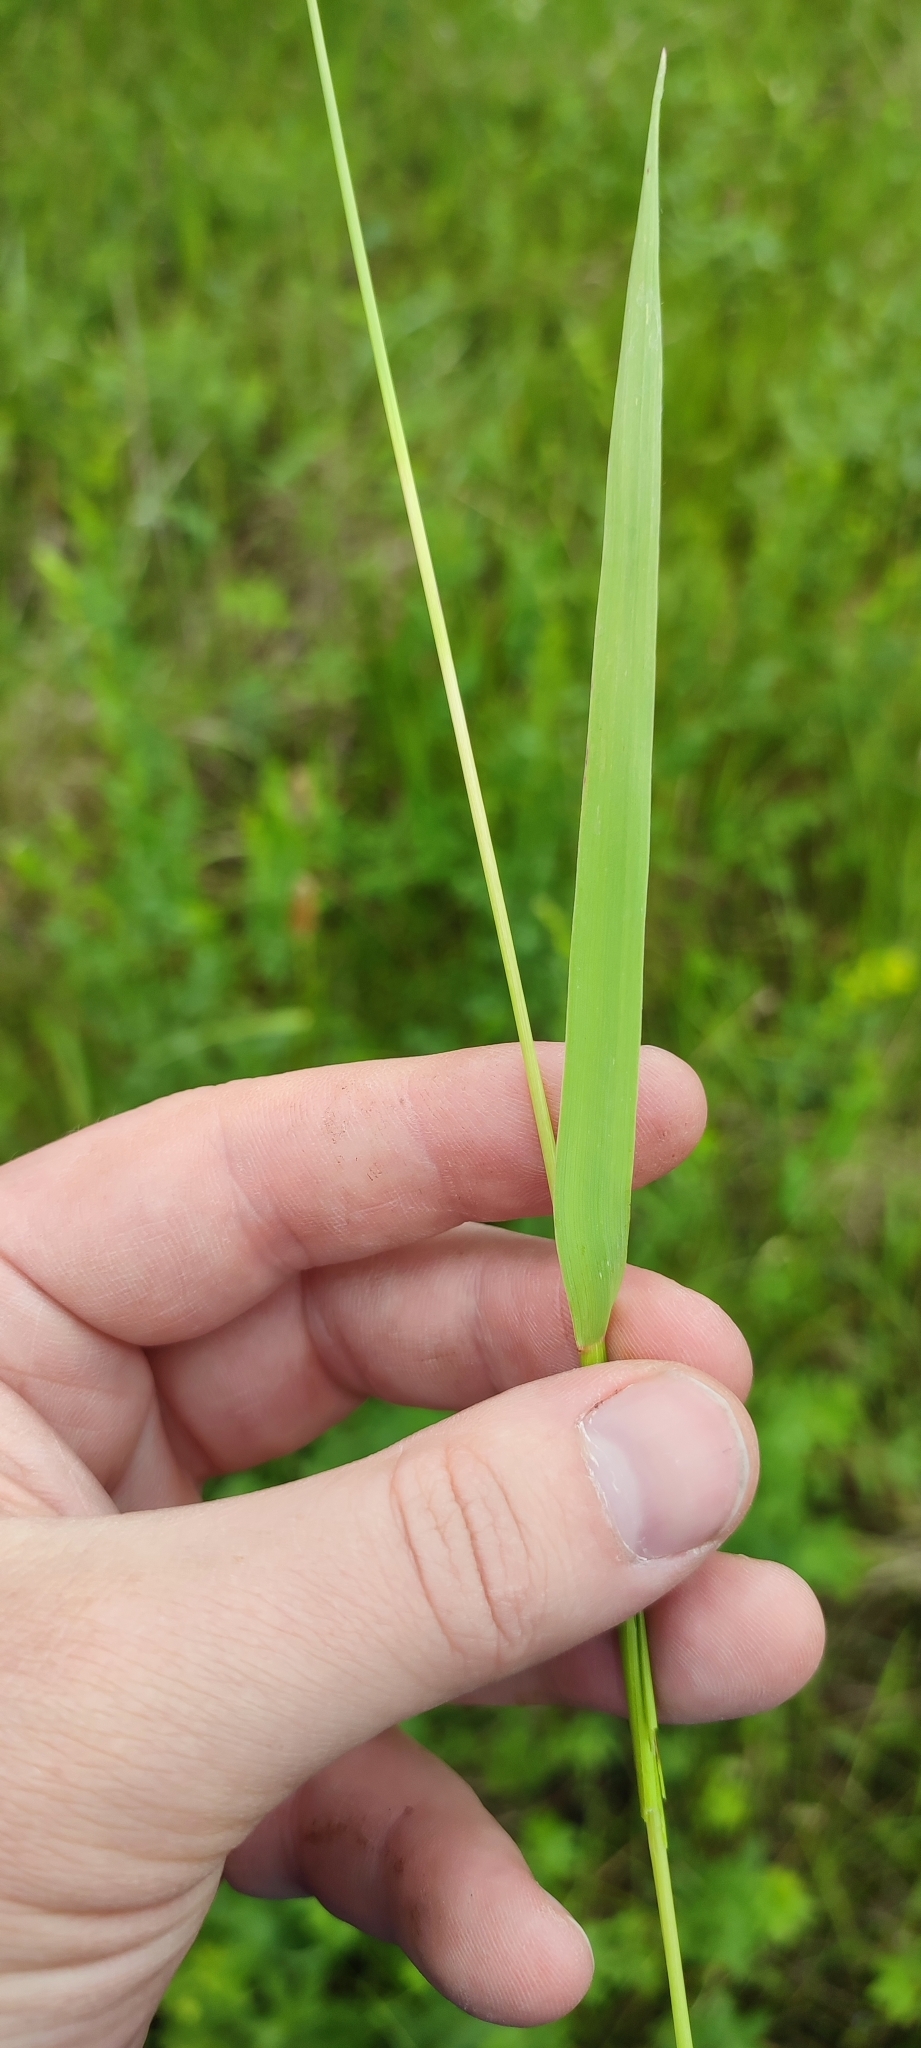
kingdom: Plantae
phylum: Tracheophyta
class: Liliopsida
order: Poales
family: Poaceae
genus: Alopecurus
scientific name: Alopecurus pratensis
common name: Meadow foxtail
